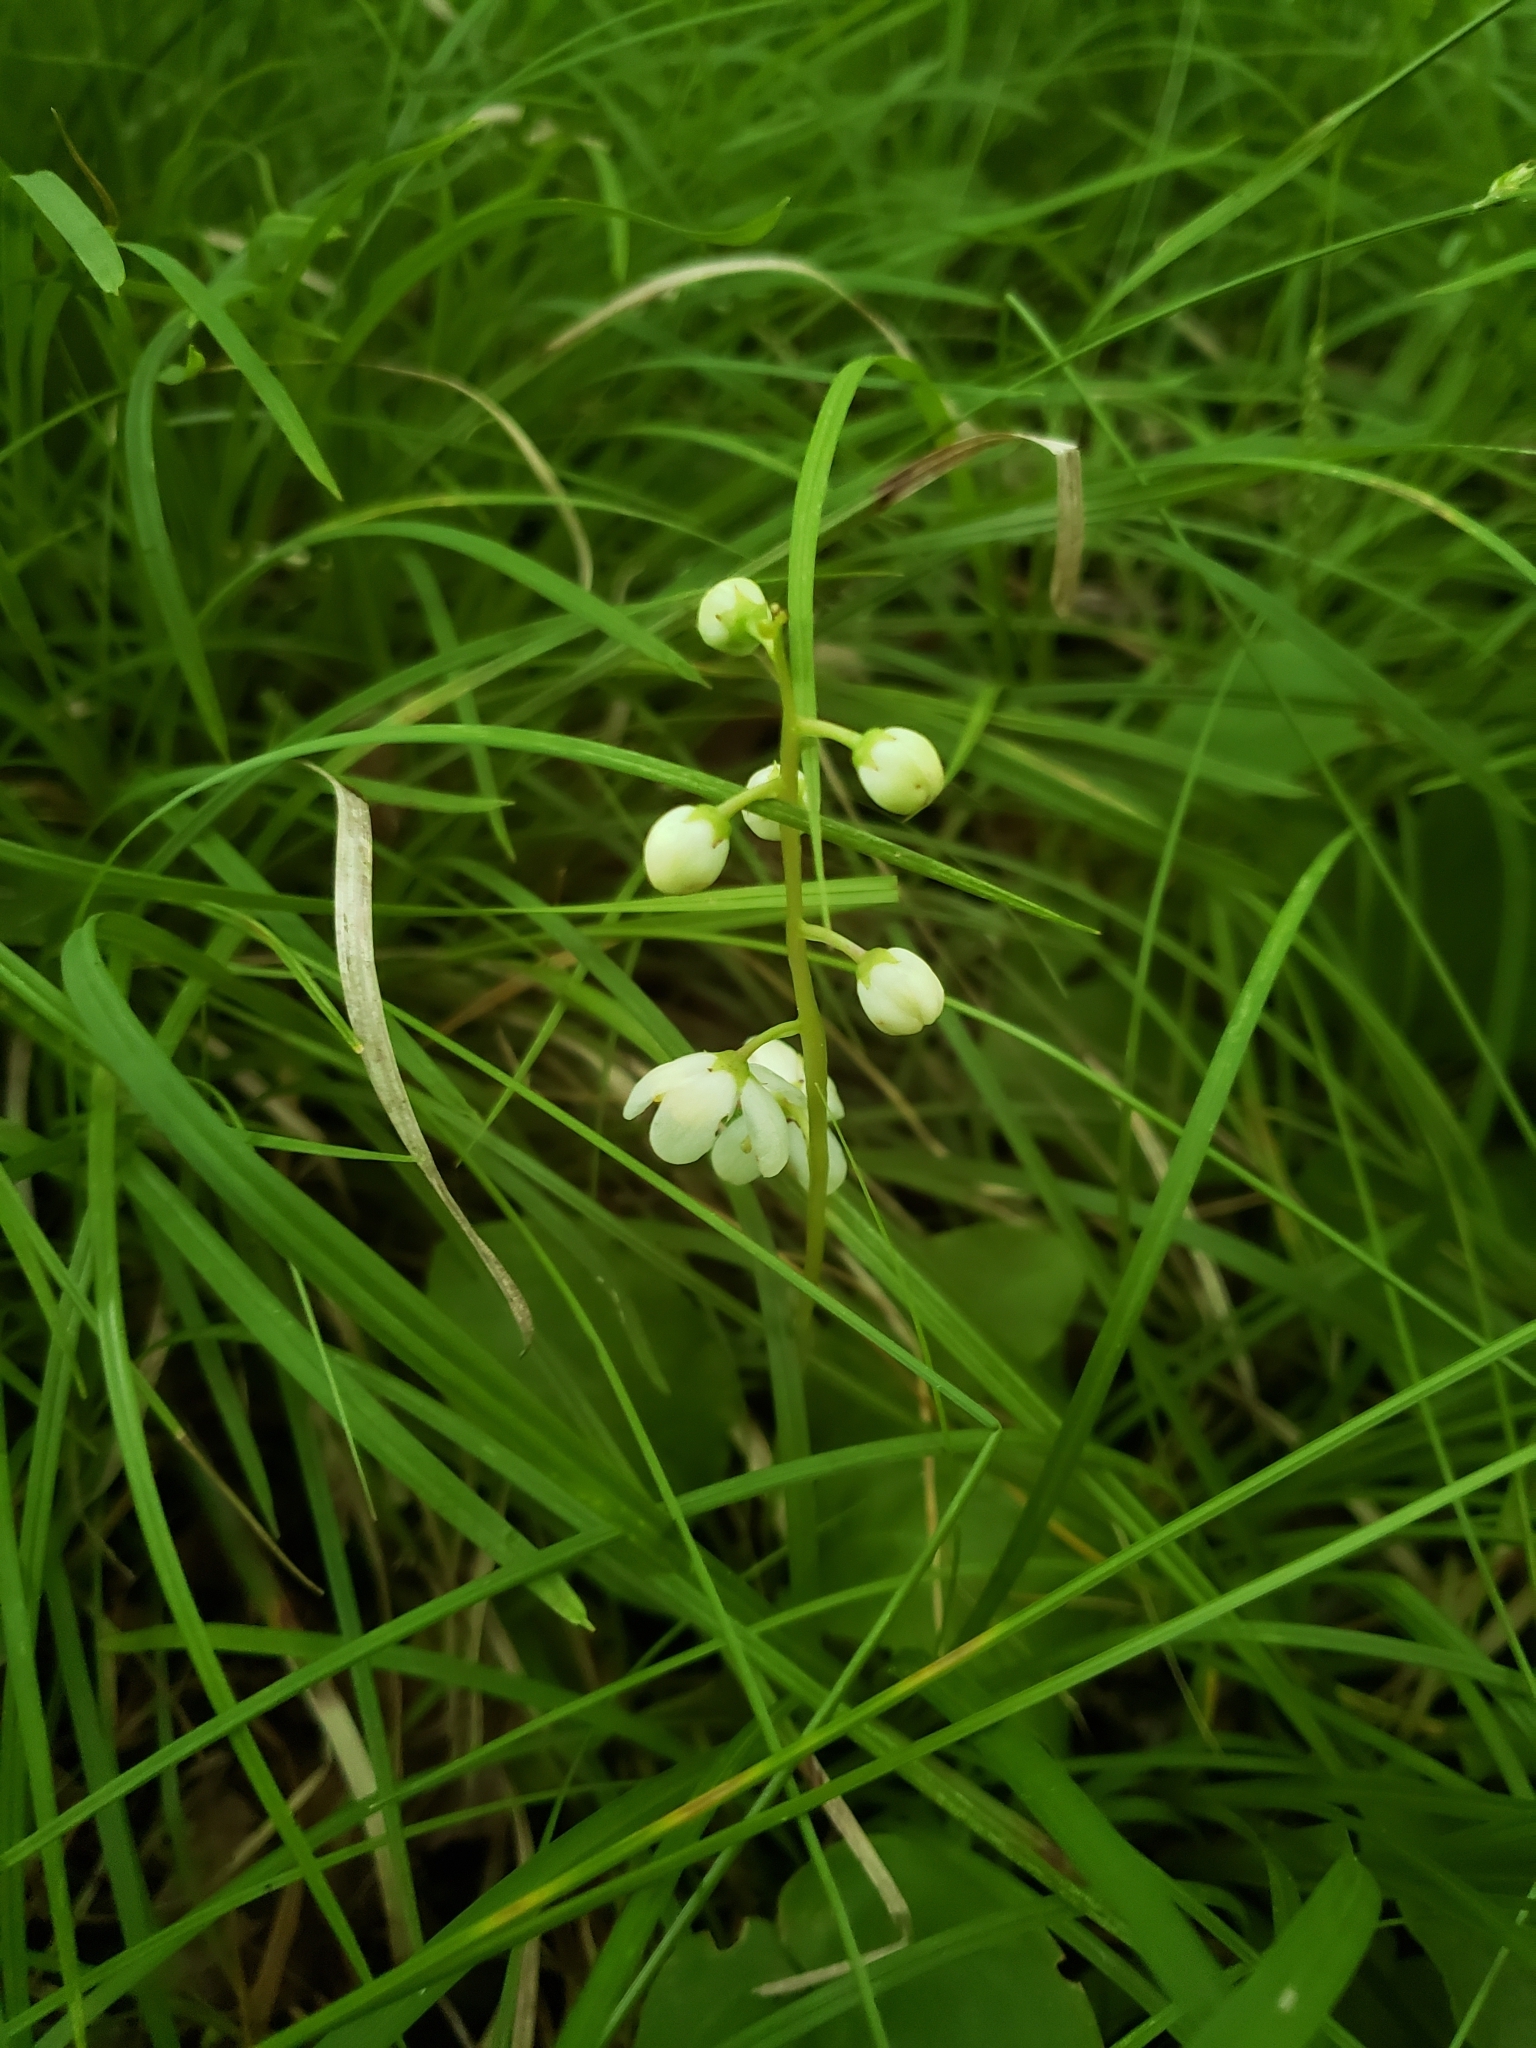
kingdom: Plantae
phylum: Tracheophyta
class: Magnoliopsida
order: Ericales
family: Ericaceae
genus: Pyrola
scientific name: Pyrola elliptica
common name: Shinleaf
